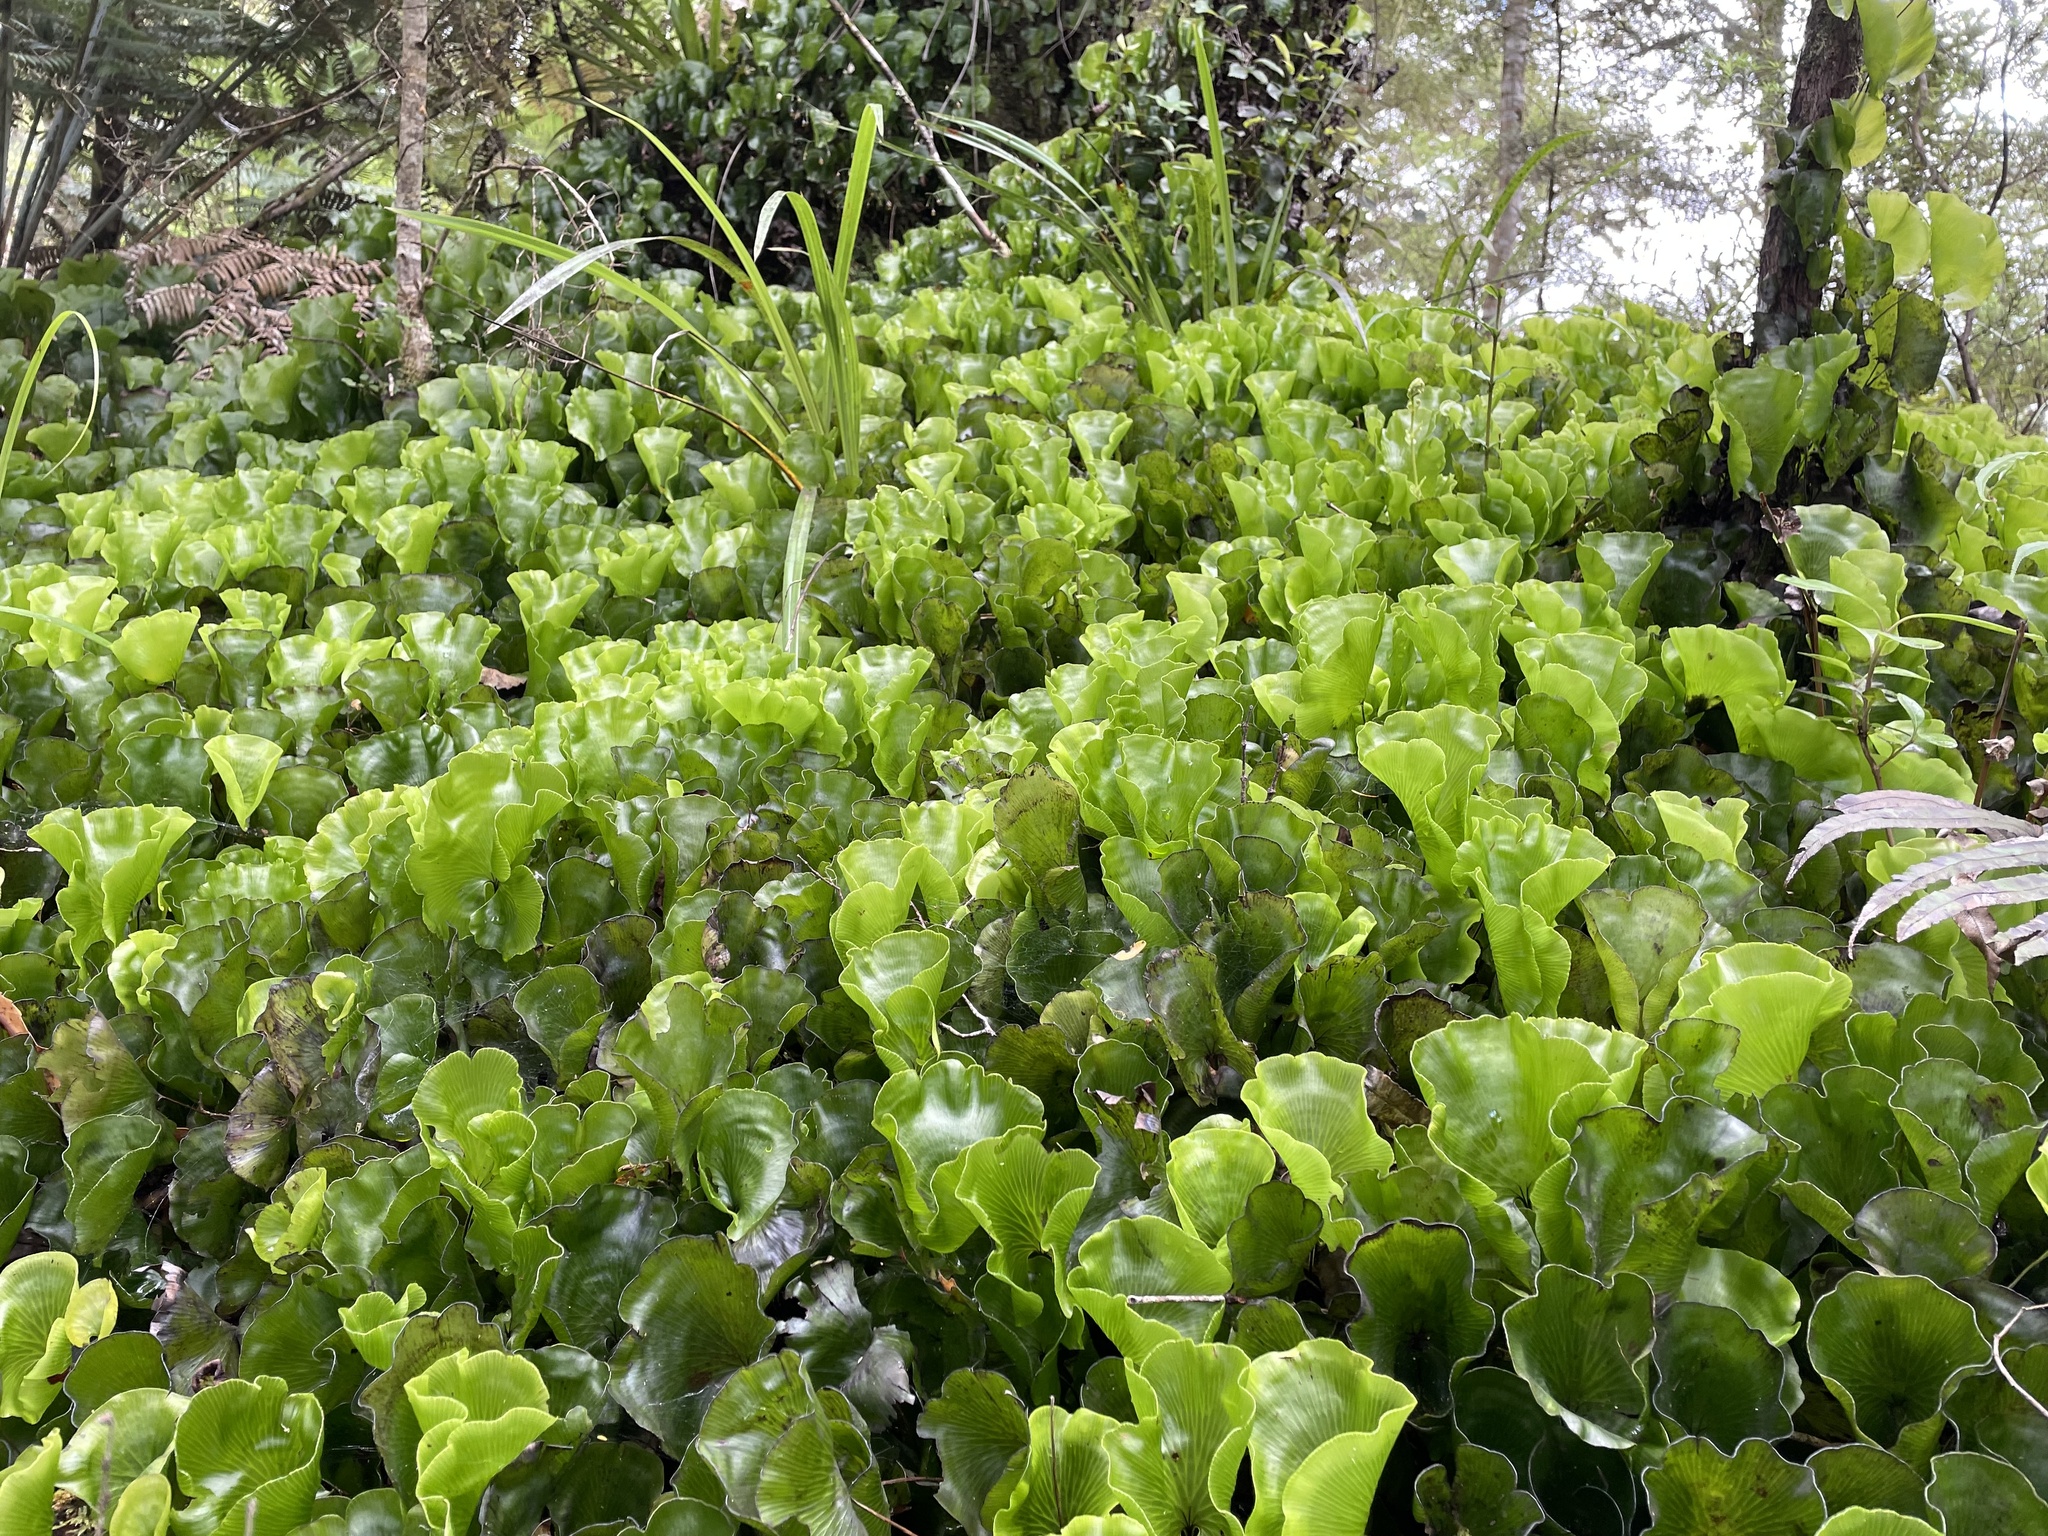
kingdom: Plantae
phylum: Tracheophyta
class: Polypodiopsida
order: Hymenophyllales
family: Hymenophyllaceae
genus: Hymenophyllum
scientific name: Hymenophyllum nephrophyllum
